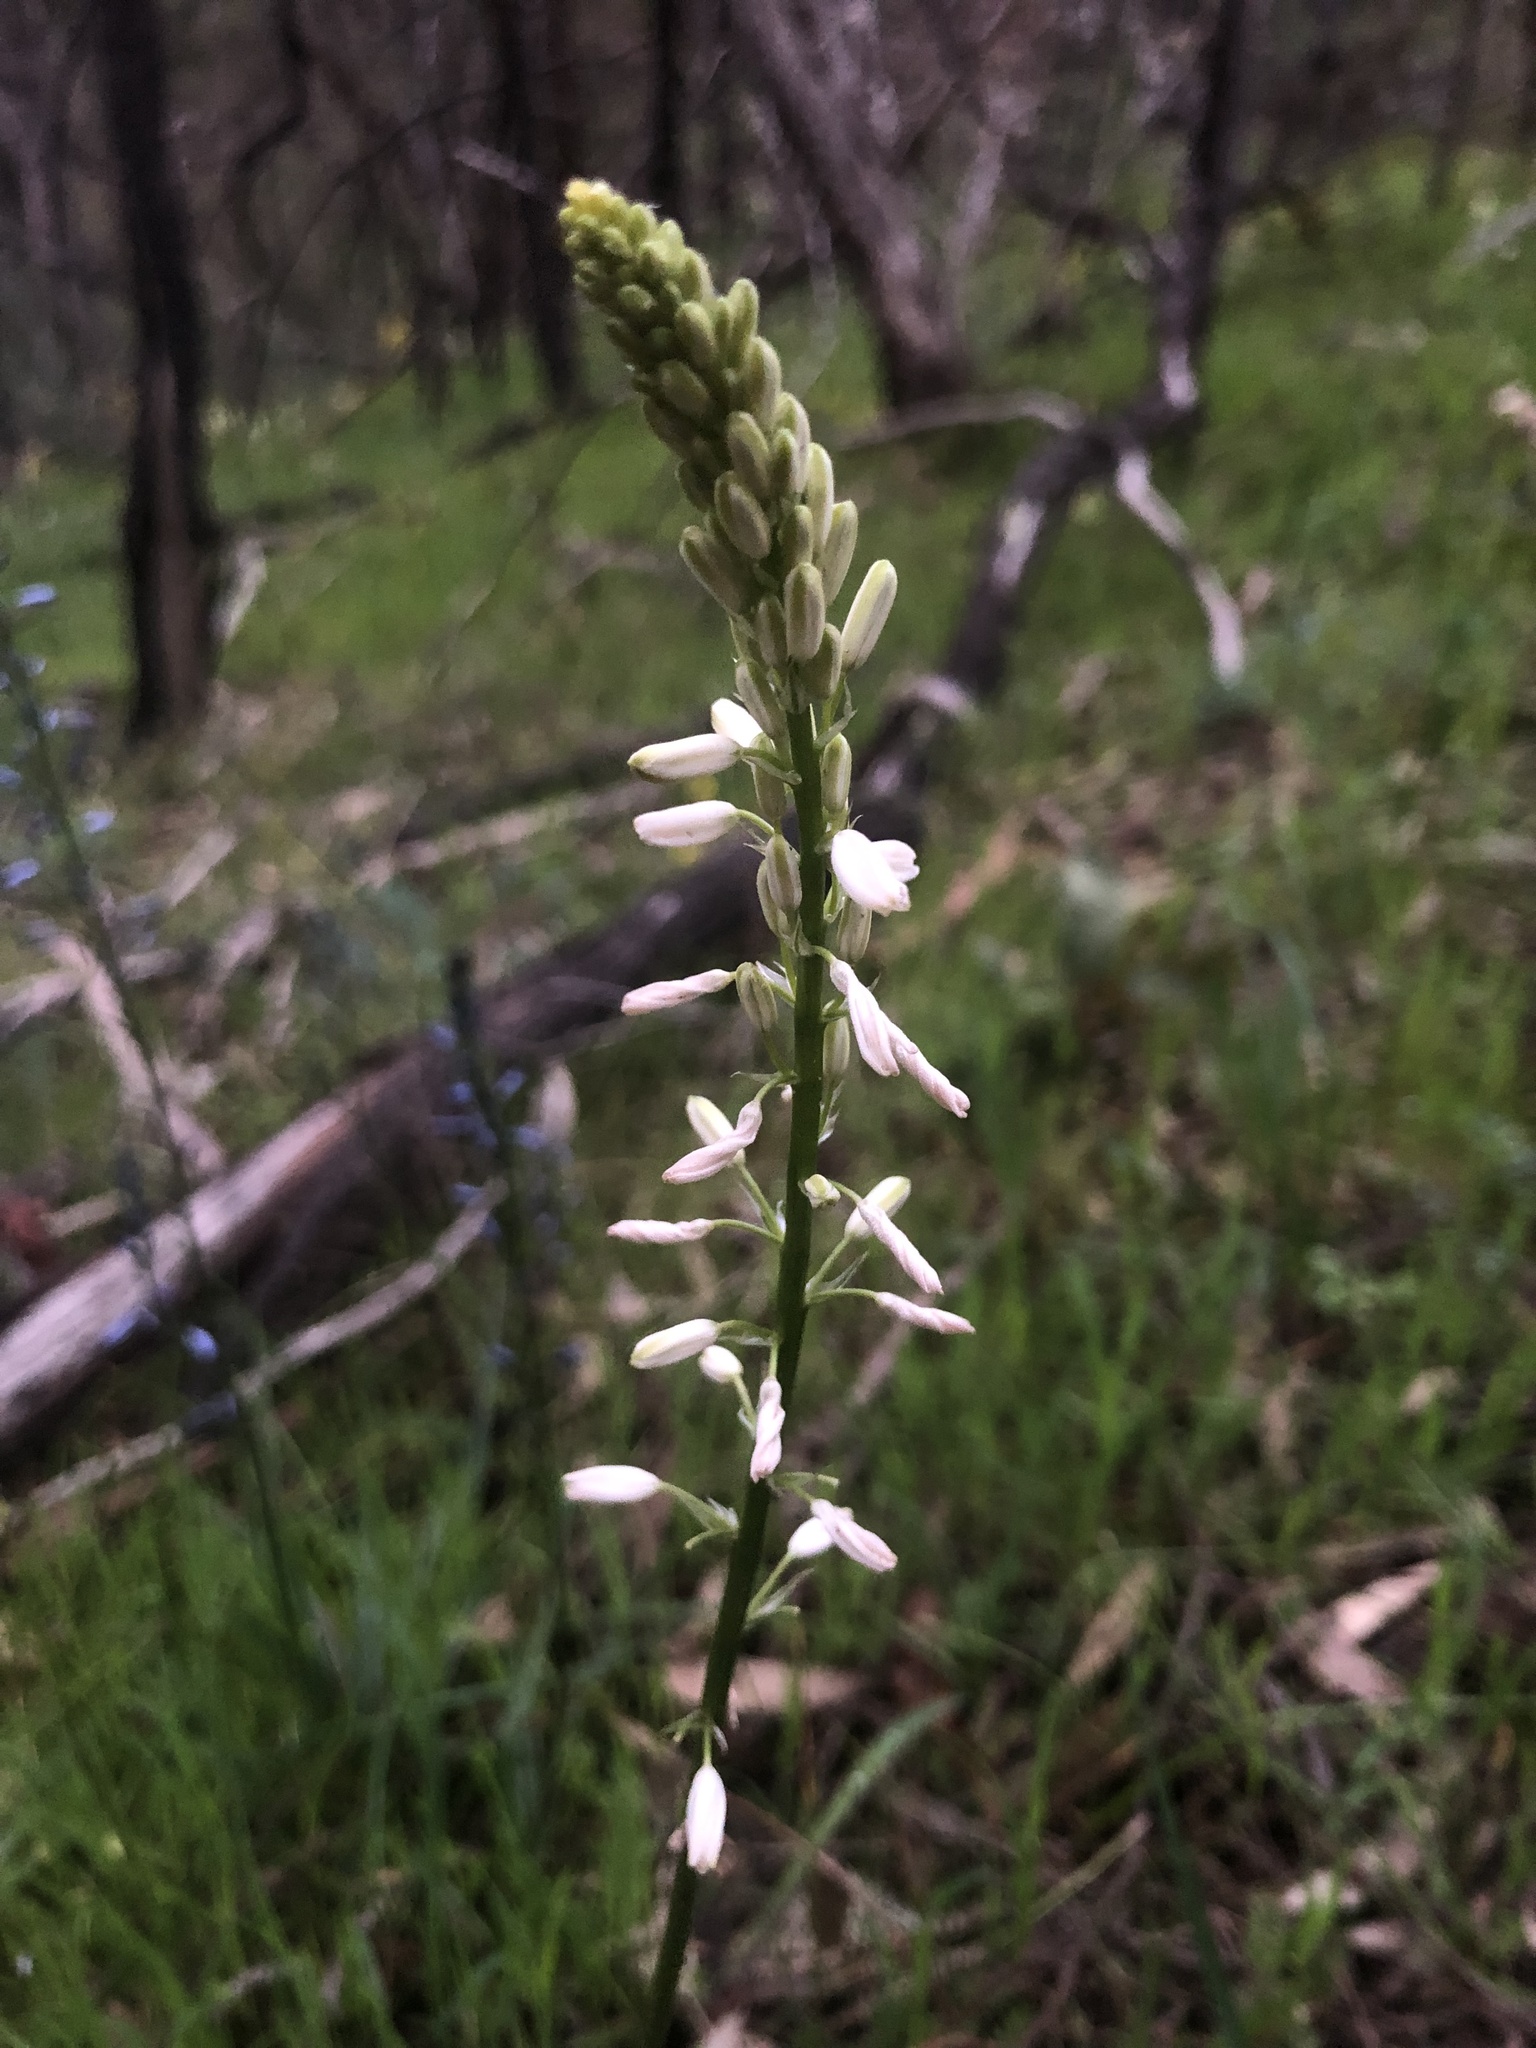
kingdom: Plantae
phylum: Tracheophyta
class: Liliopsida
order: Asparagales
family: Asphodelaceae
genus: Caesia
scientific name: Caesia calliantha
